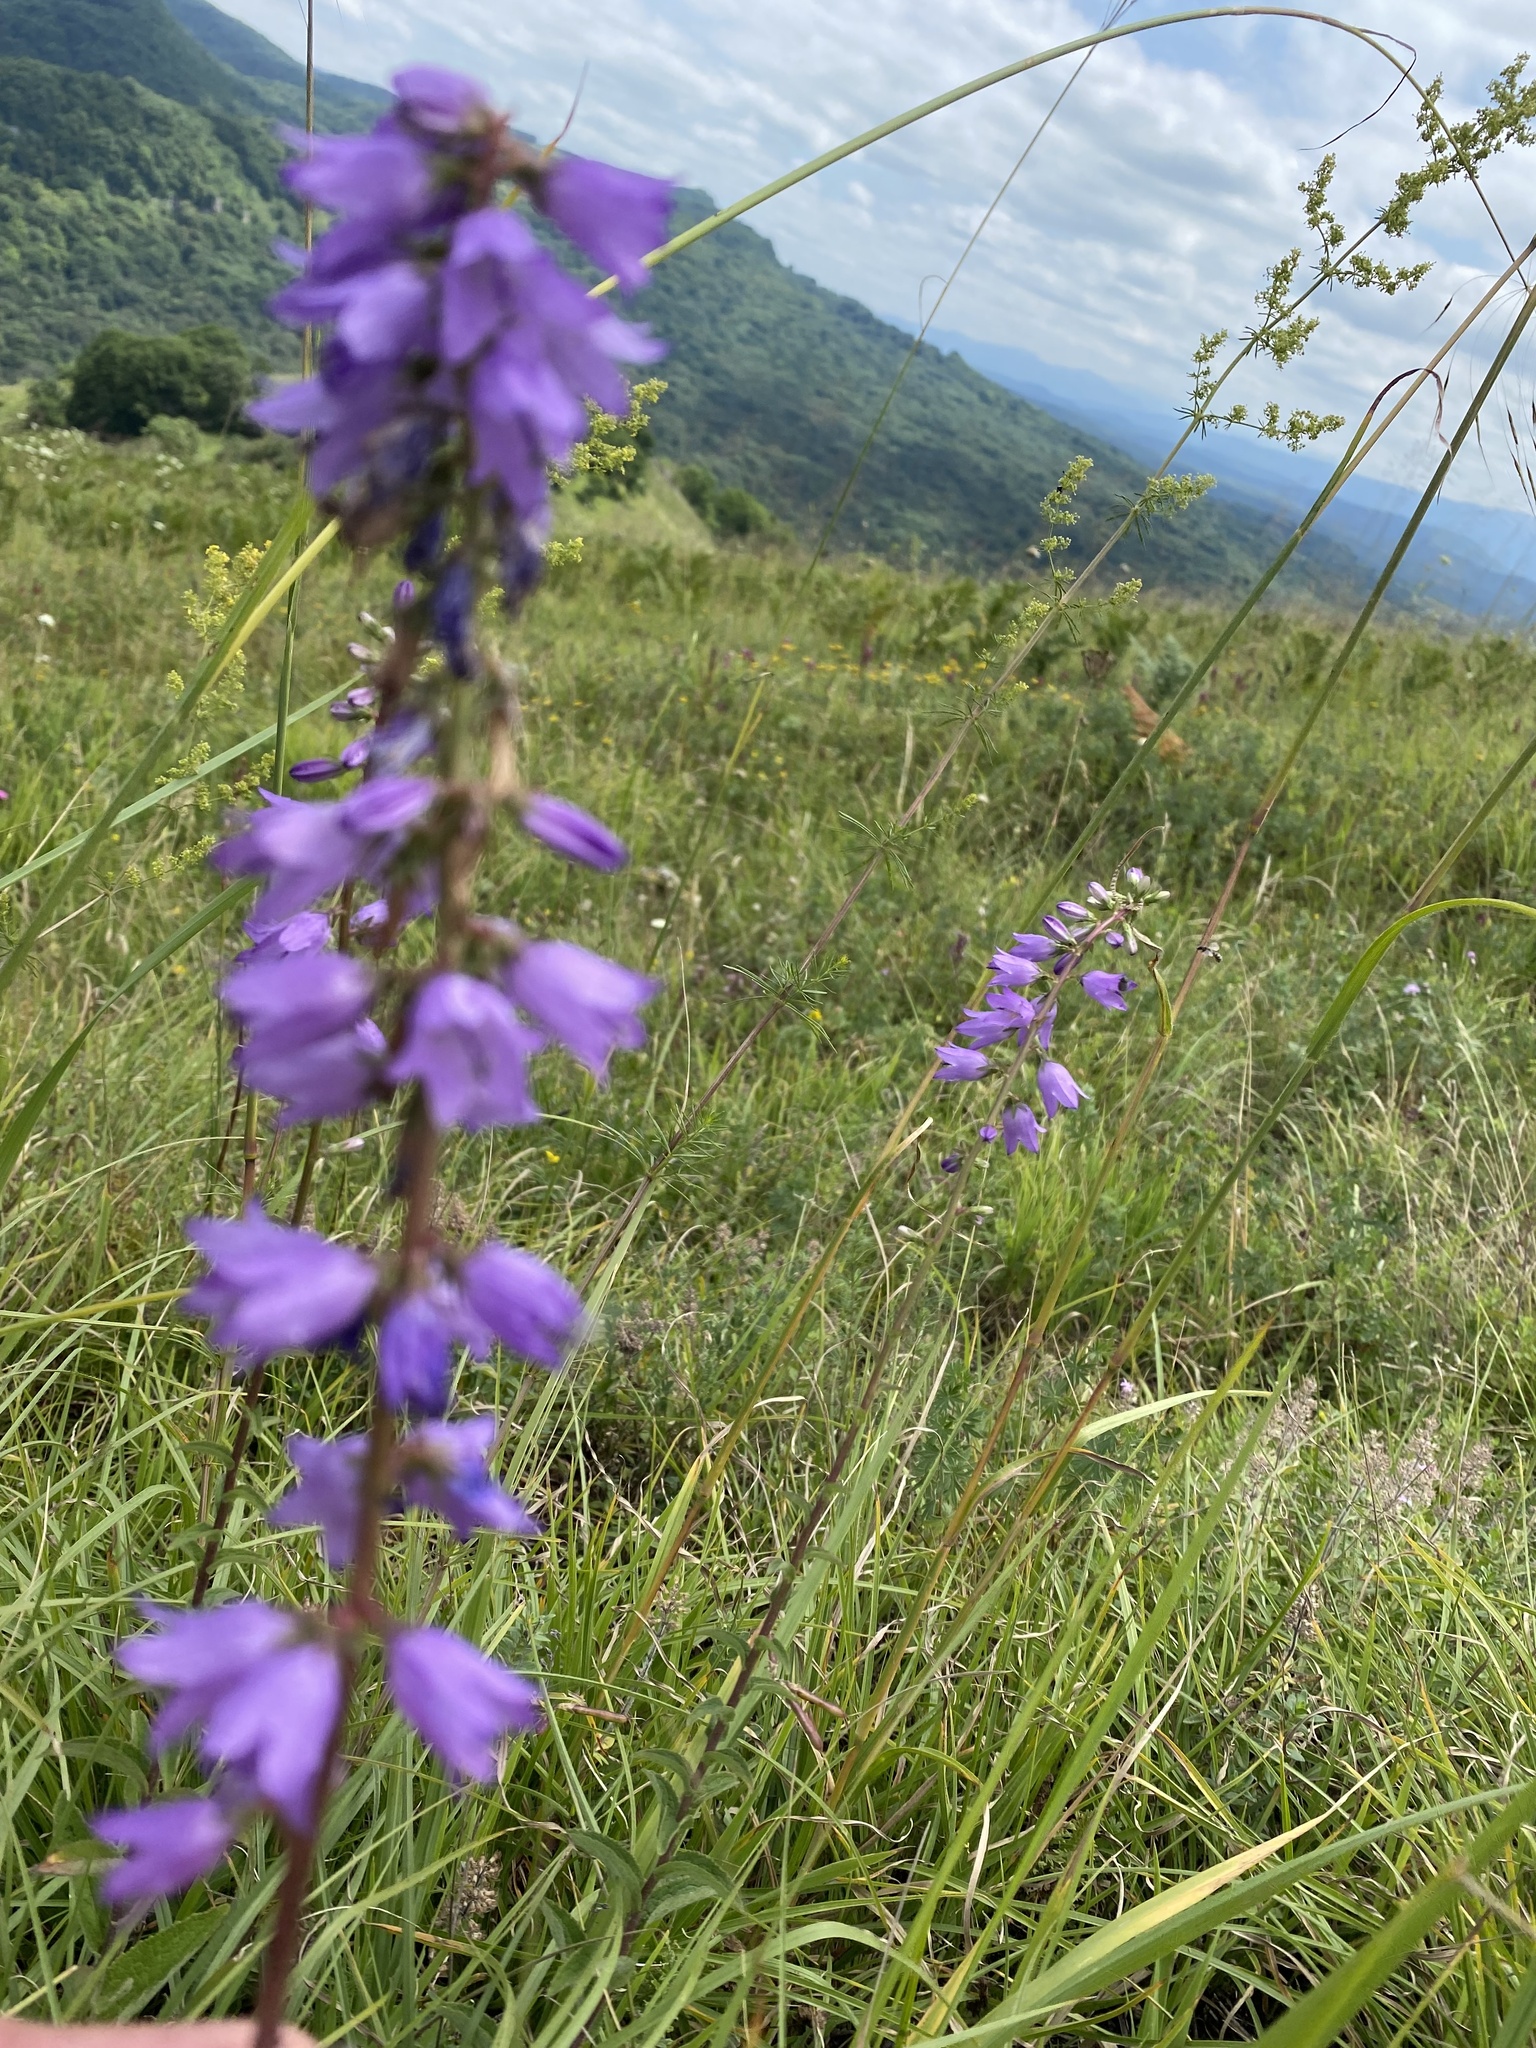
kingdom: Plantae
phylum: Tracheophyta
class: Magnoliopsida
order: Asterales
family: Campanulaceae
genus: Campanula
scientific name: Campanula bononiensis
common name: Pale bellflower
